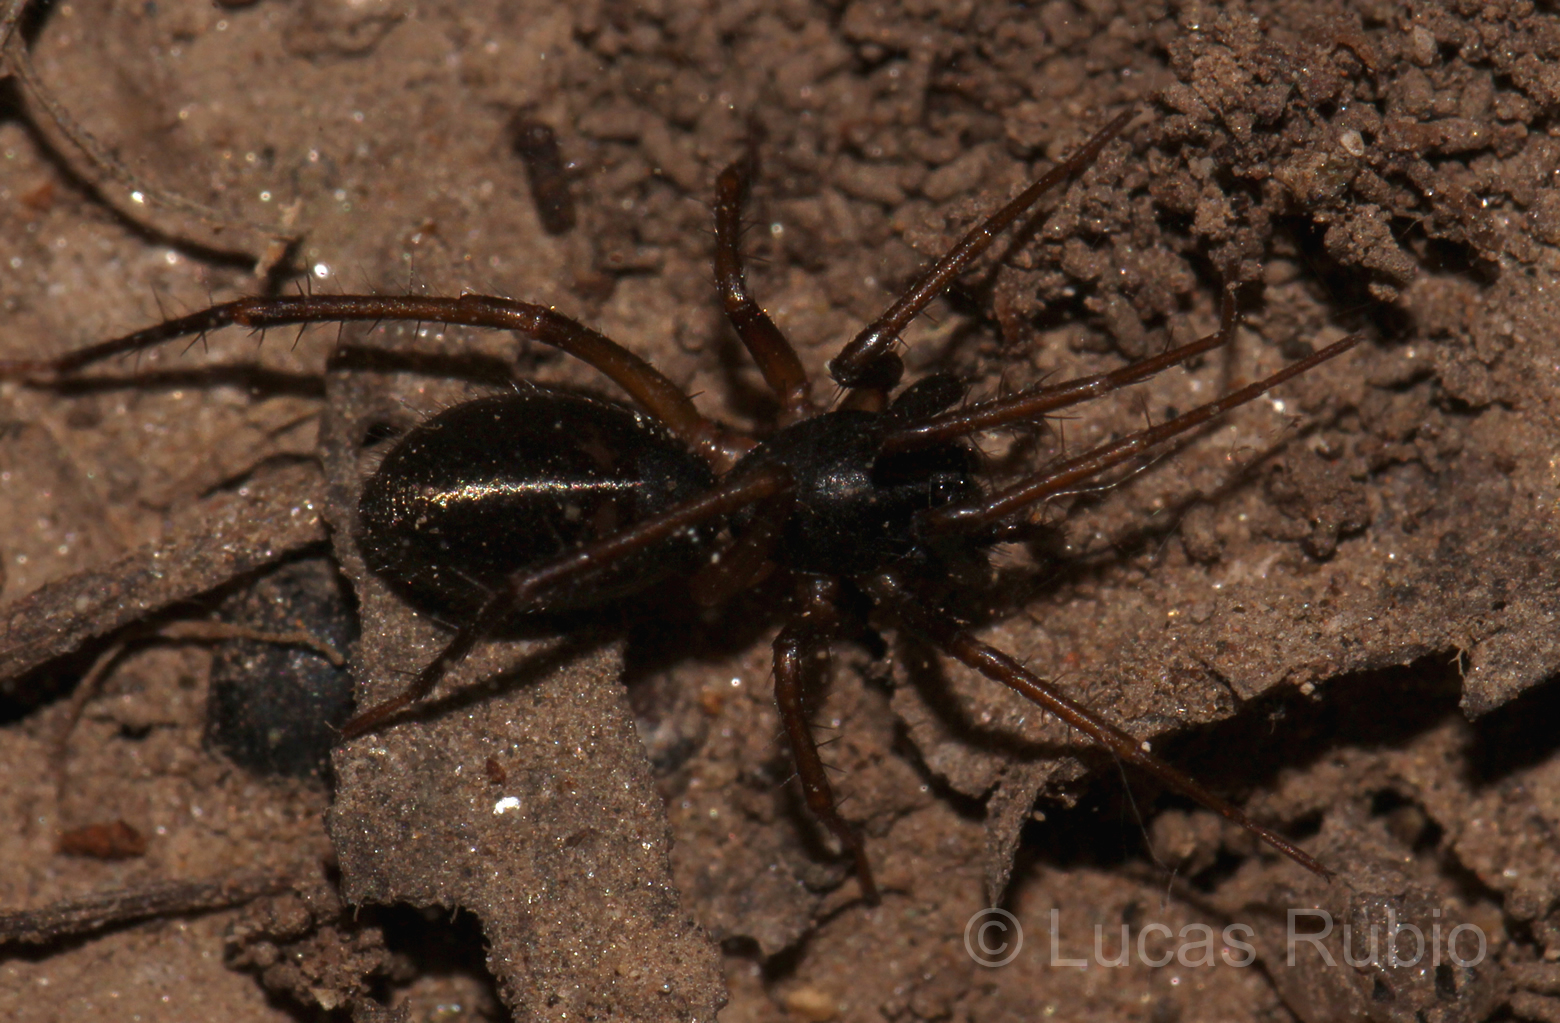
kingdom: Animalia
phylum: Arthropoda
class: Arachnida
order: Araneae
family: Corinnidae
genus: Falconina
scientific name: Falconina gracilis
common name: Antmimic spider
